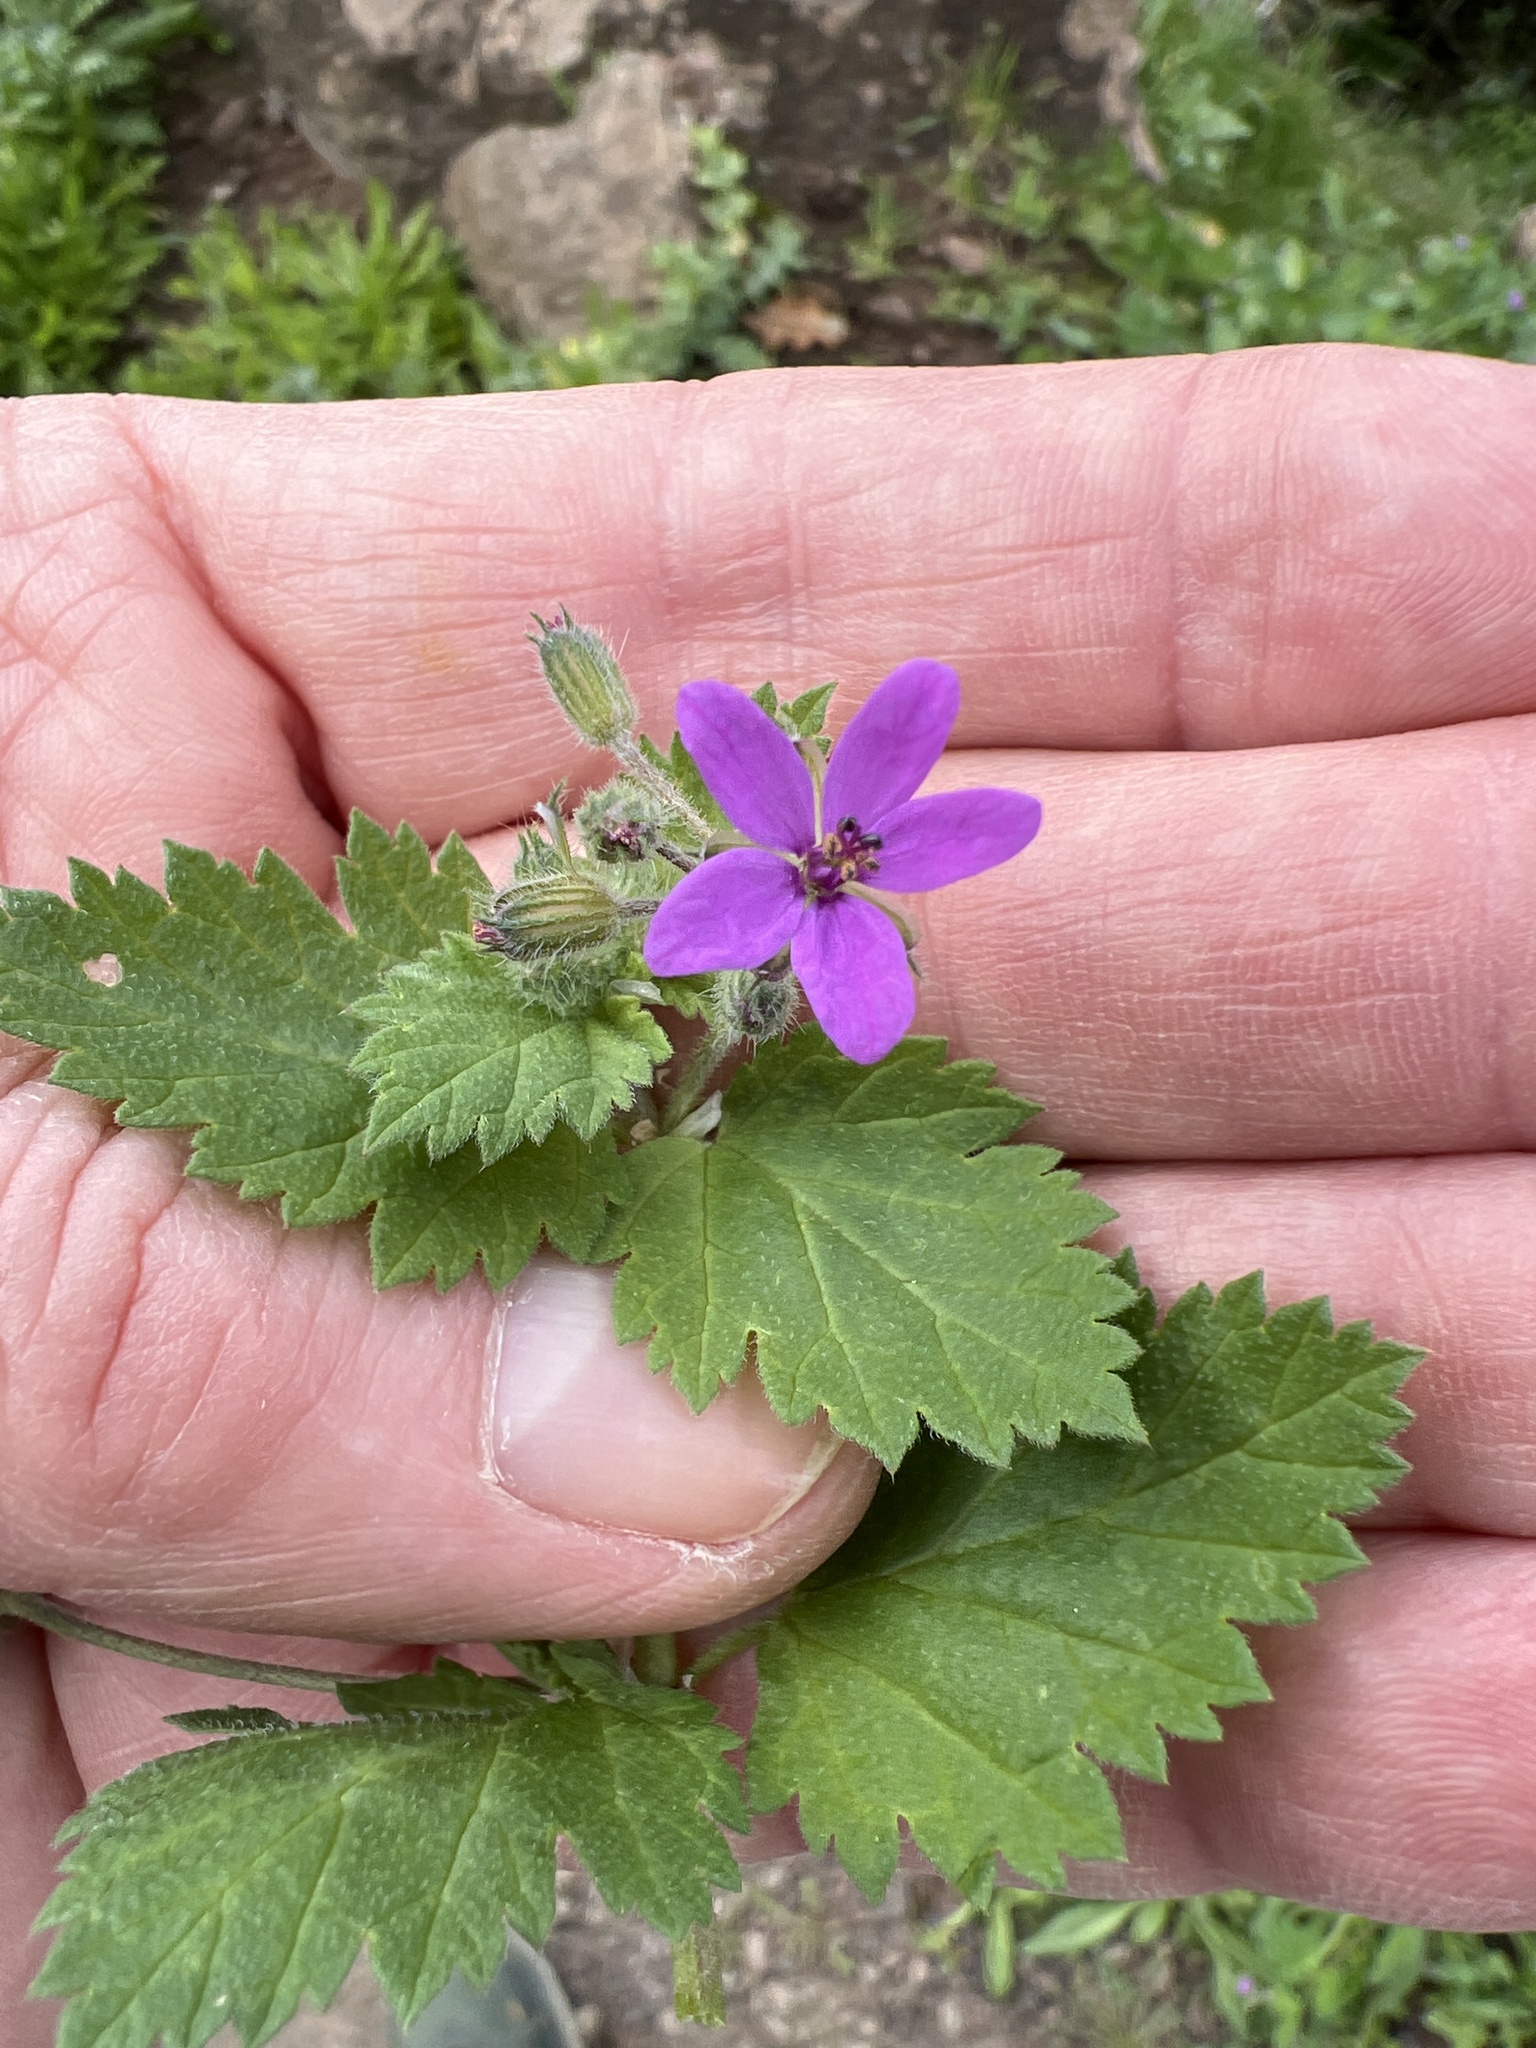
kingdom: Plantae
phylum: Tracheophyta
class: Magnoliopsida
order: Geraniales
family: Geraniaceae
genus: Erodium
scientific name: Erodium malacoides
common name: Soft stork's-bill
